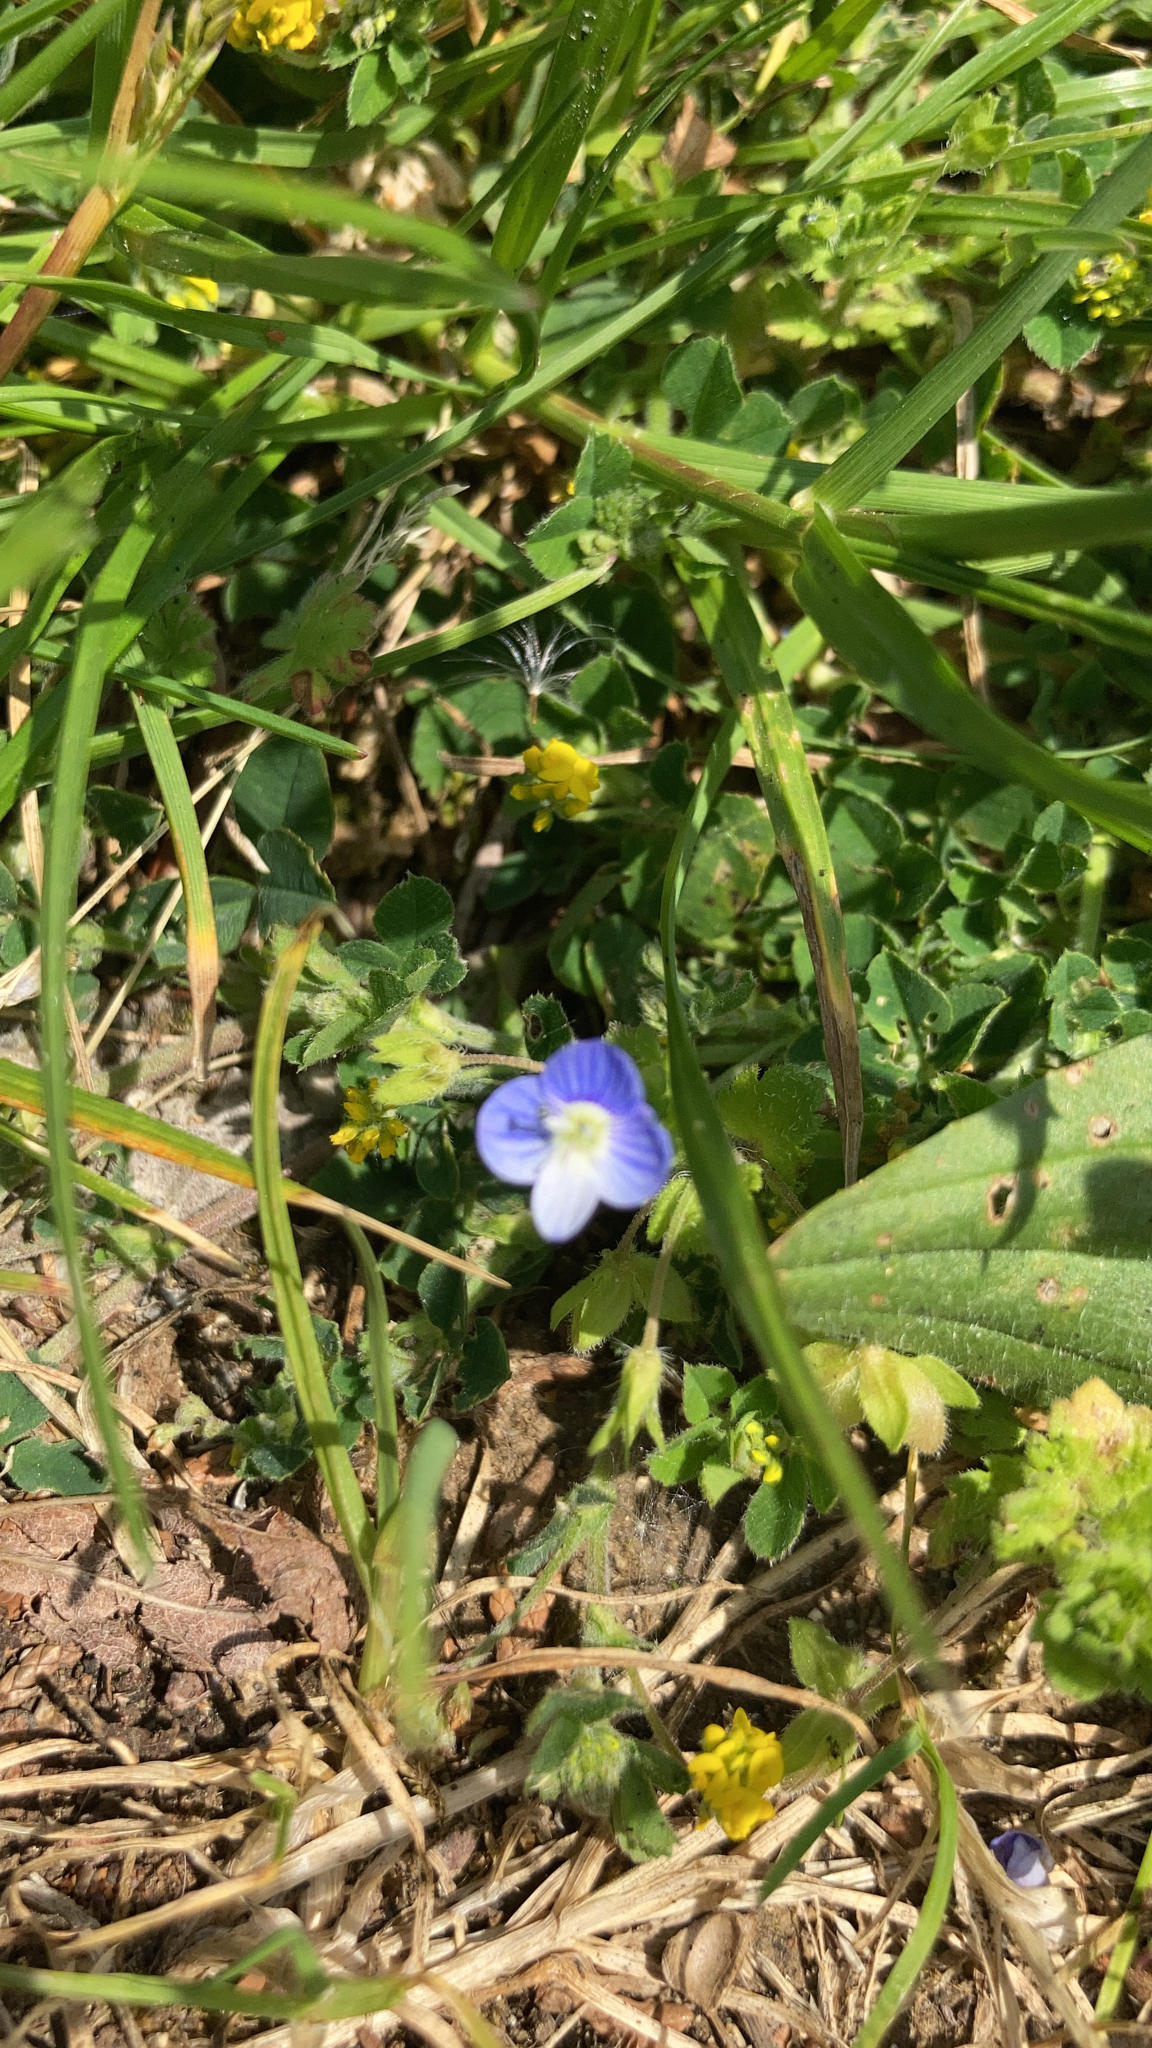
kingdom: Plantae
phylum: Tracheophyta
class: Magnoliopsida
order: Lamiales
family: Plantaginaceae
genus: Veronica
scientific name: Veronica persica
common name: Common field-speedwell
